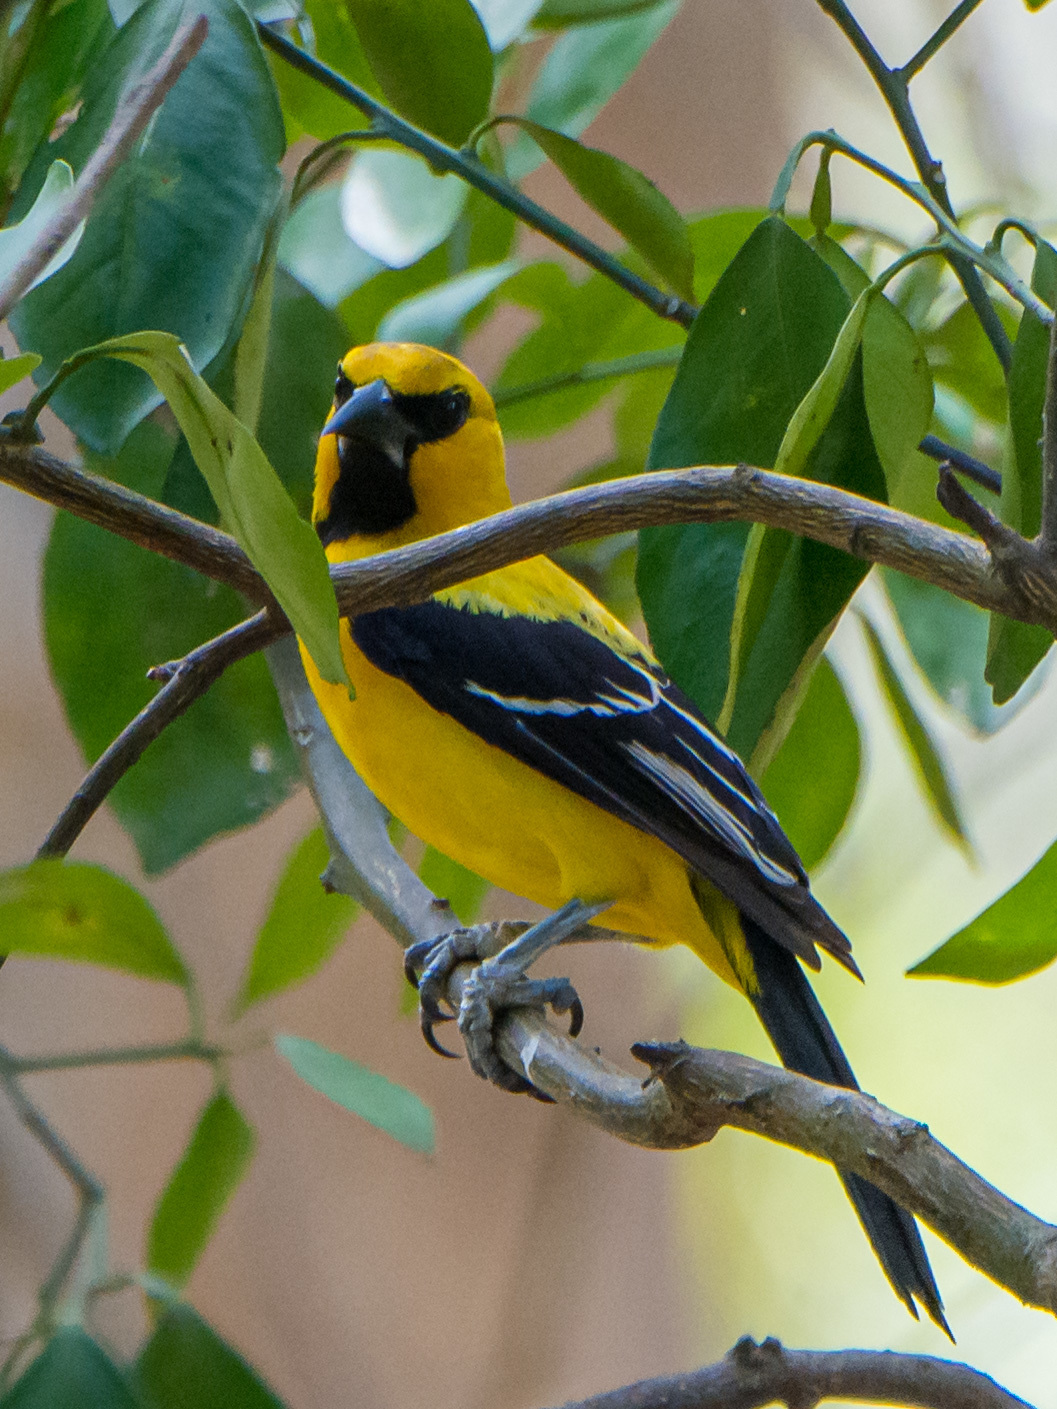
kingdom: Animalia
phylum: Chordata
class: Aves
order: Passeriformes
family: Icteridae
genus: Icterus
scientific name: Icterus nigrogularis
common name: Yellow oriole
